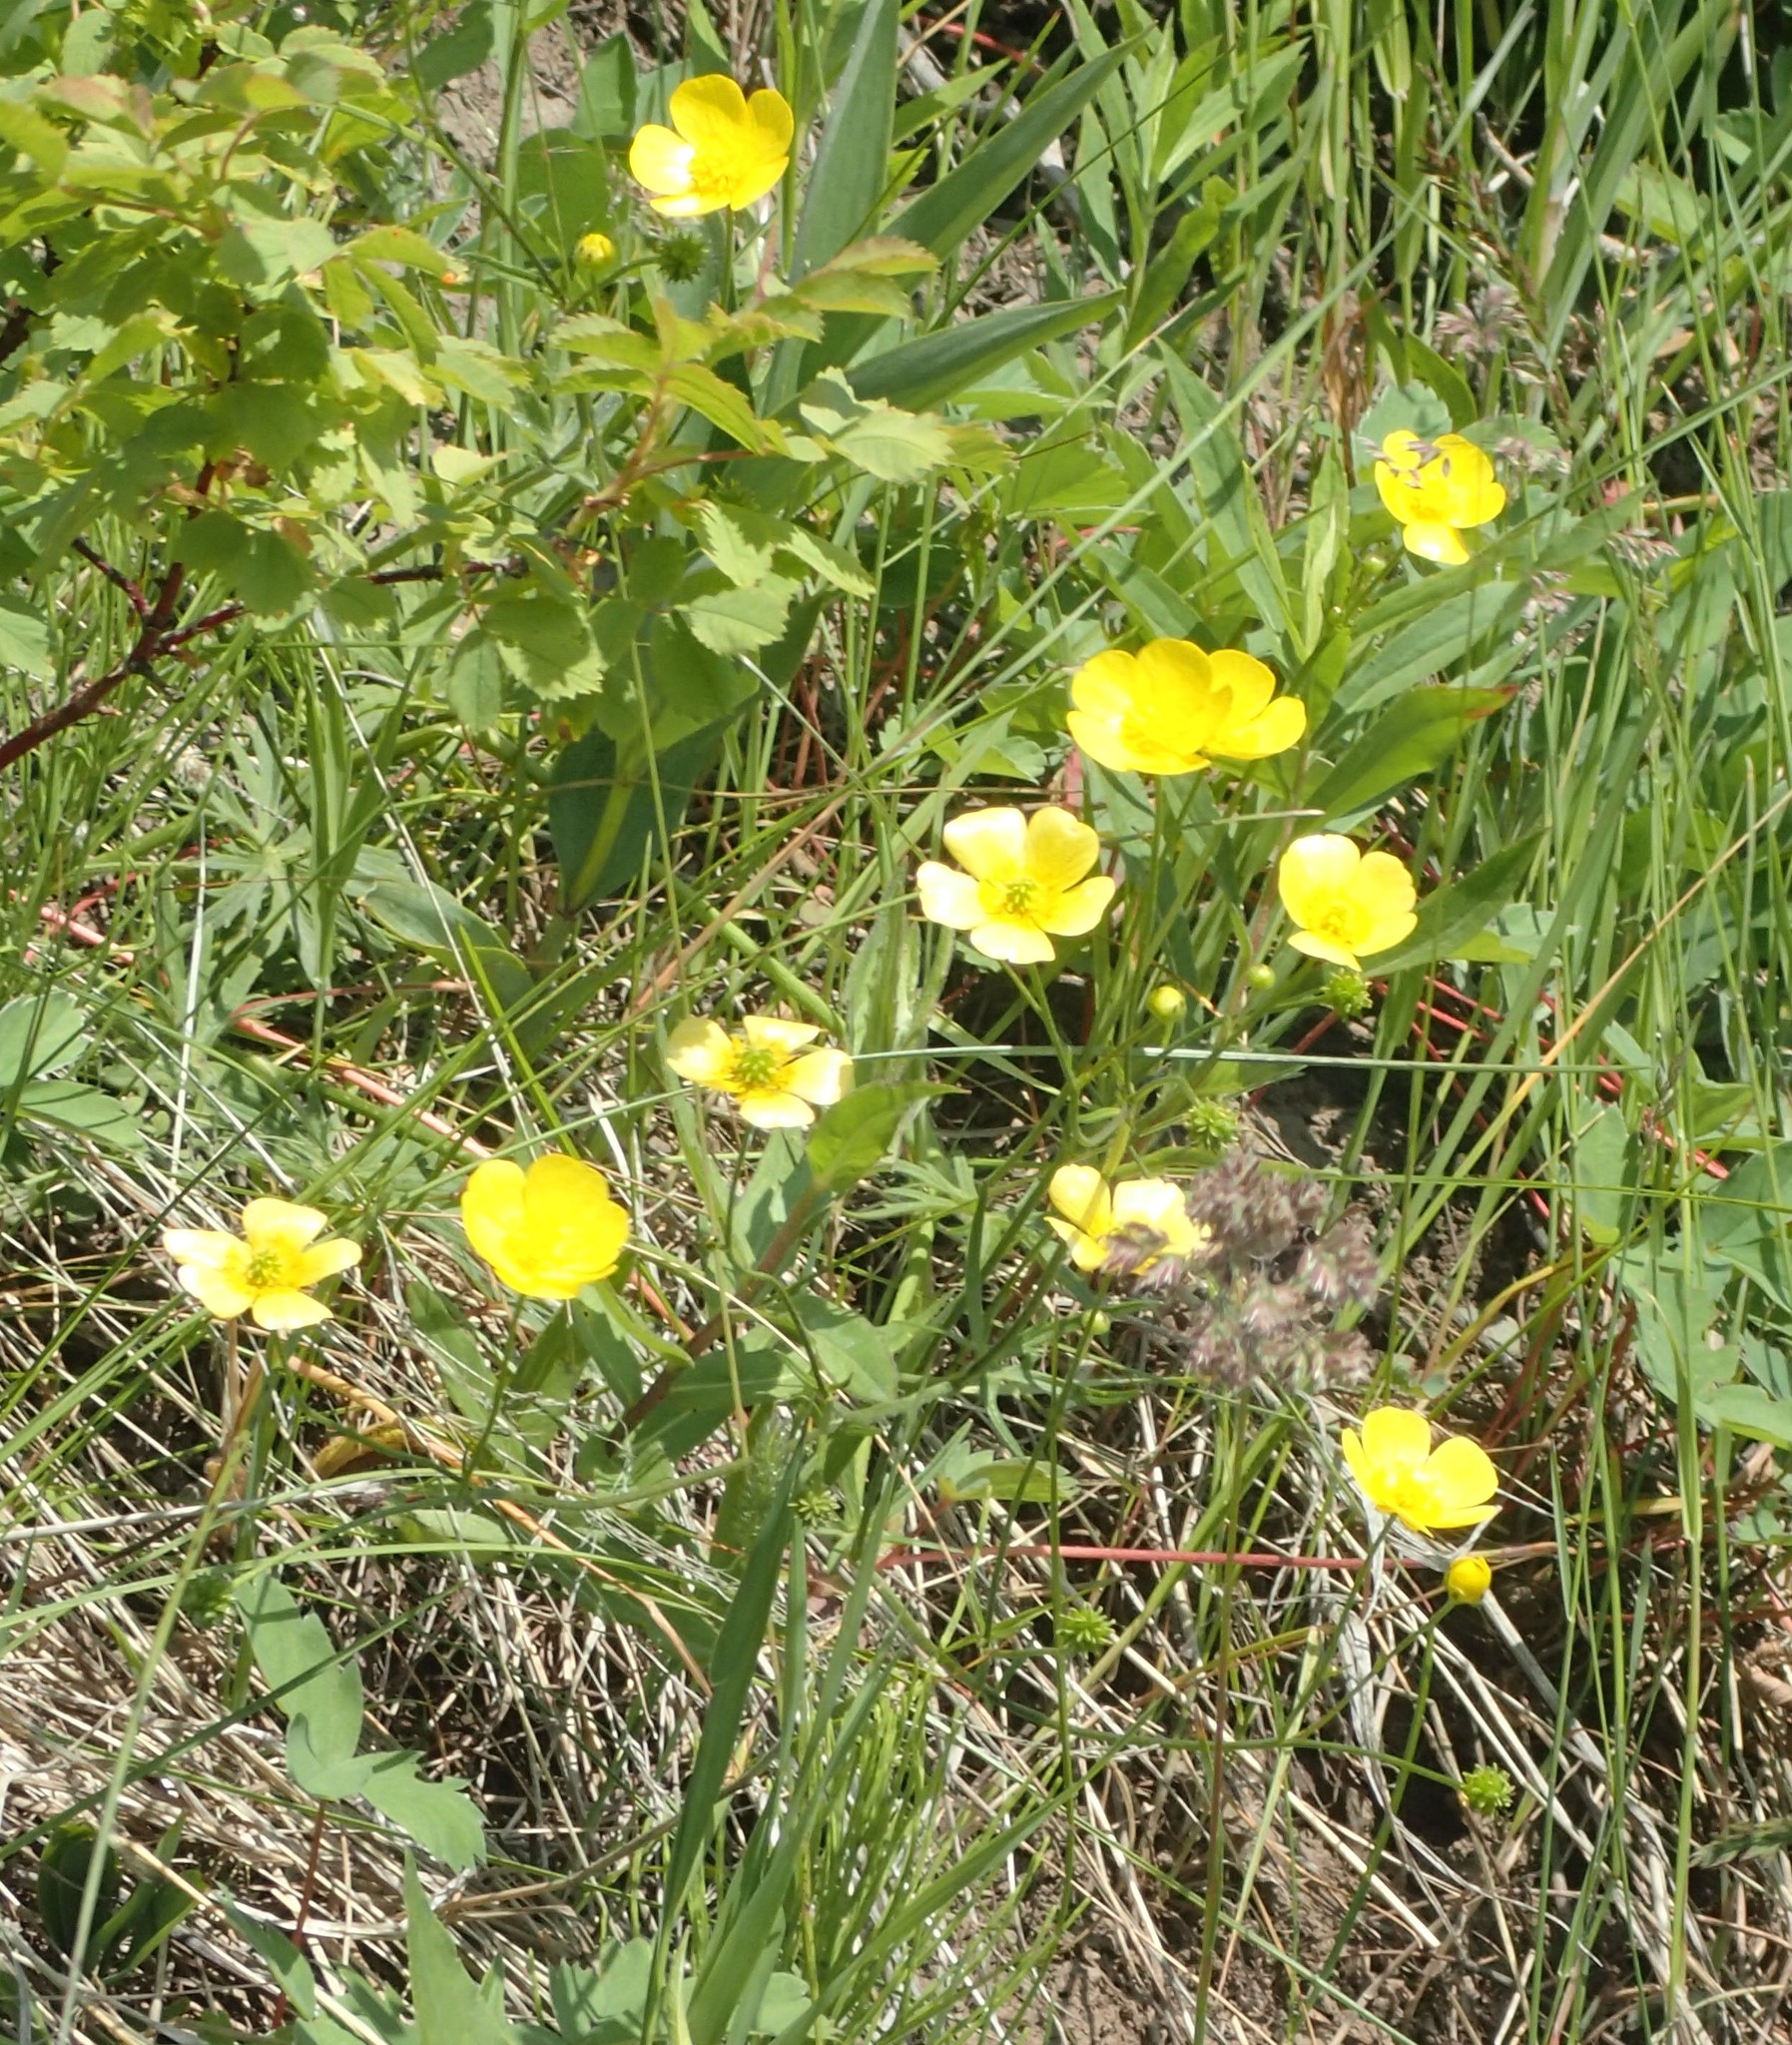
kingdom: Plantae
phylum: Tracheophyta
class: Magnoliopsida
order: Ranunculales
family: Ranunculaceae
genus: Ranunculus
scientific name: Ranunculus acris
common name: Meadow buttercup
